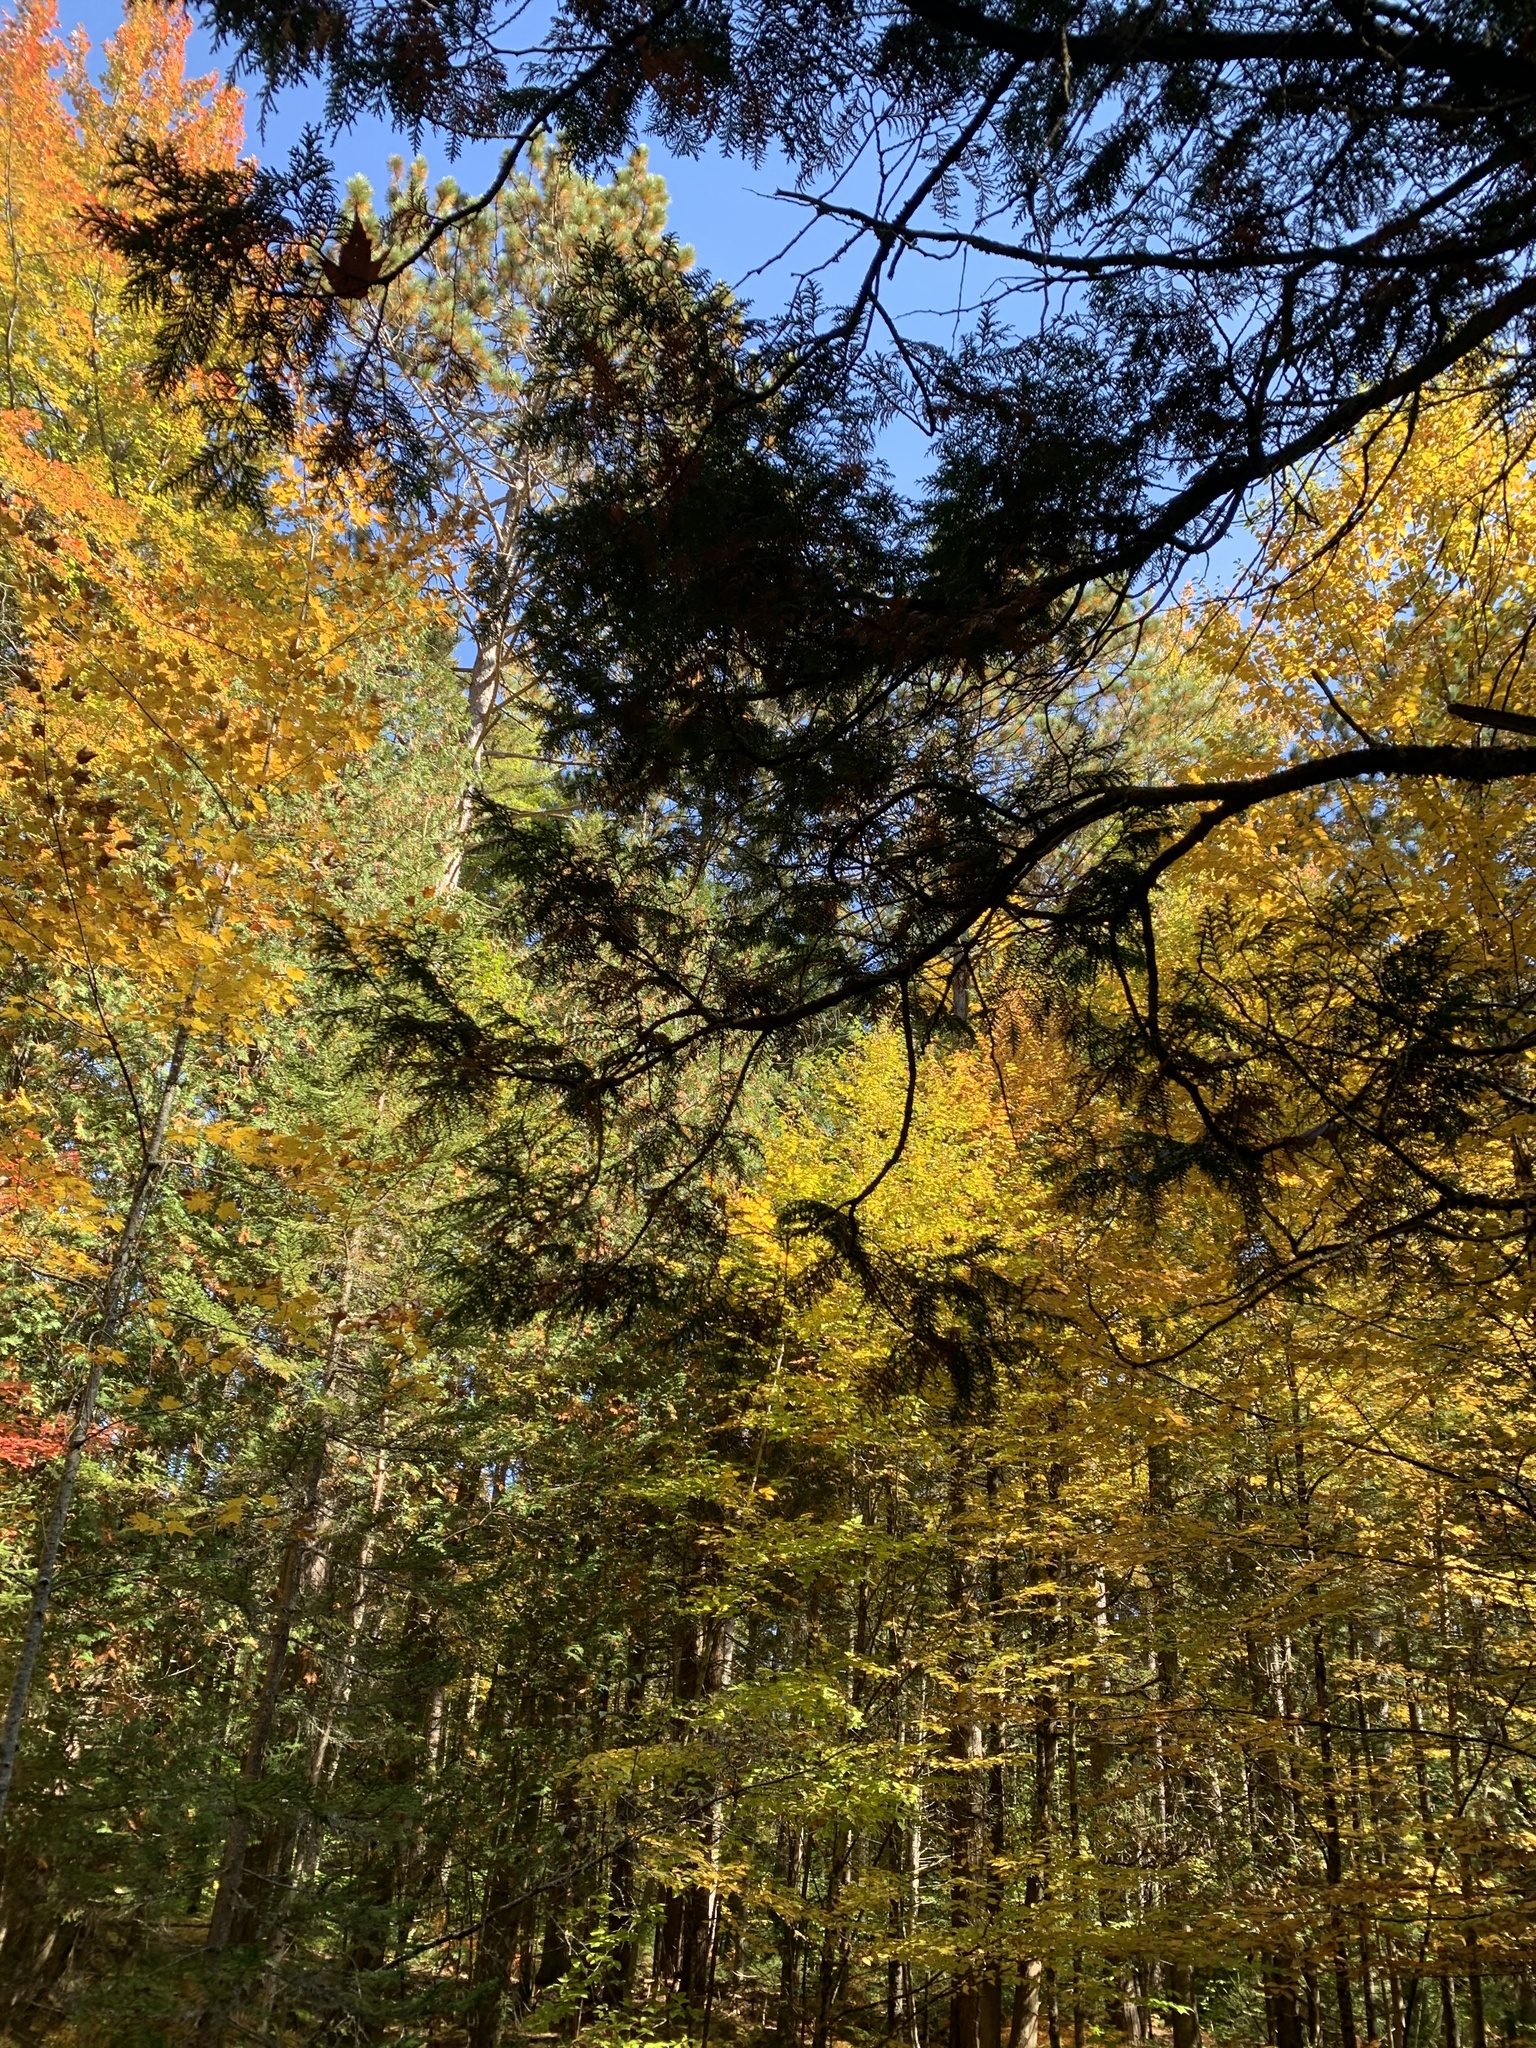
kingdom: Plantae
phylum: Tracheophyta
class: Pinopsida
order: Pinales
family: Cupressaceae
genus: Thuja
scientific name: Thuja occidentalis
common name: Northern white-cedar
